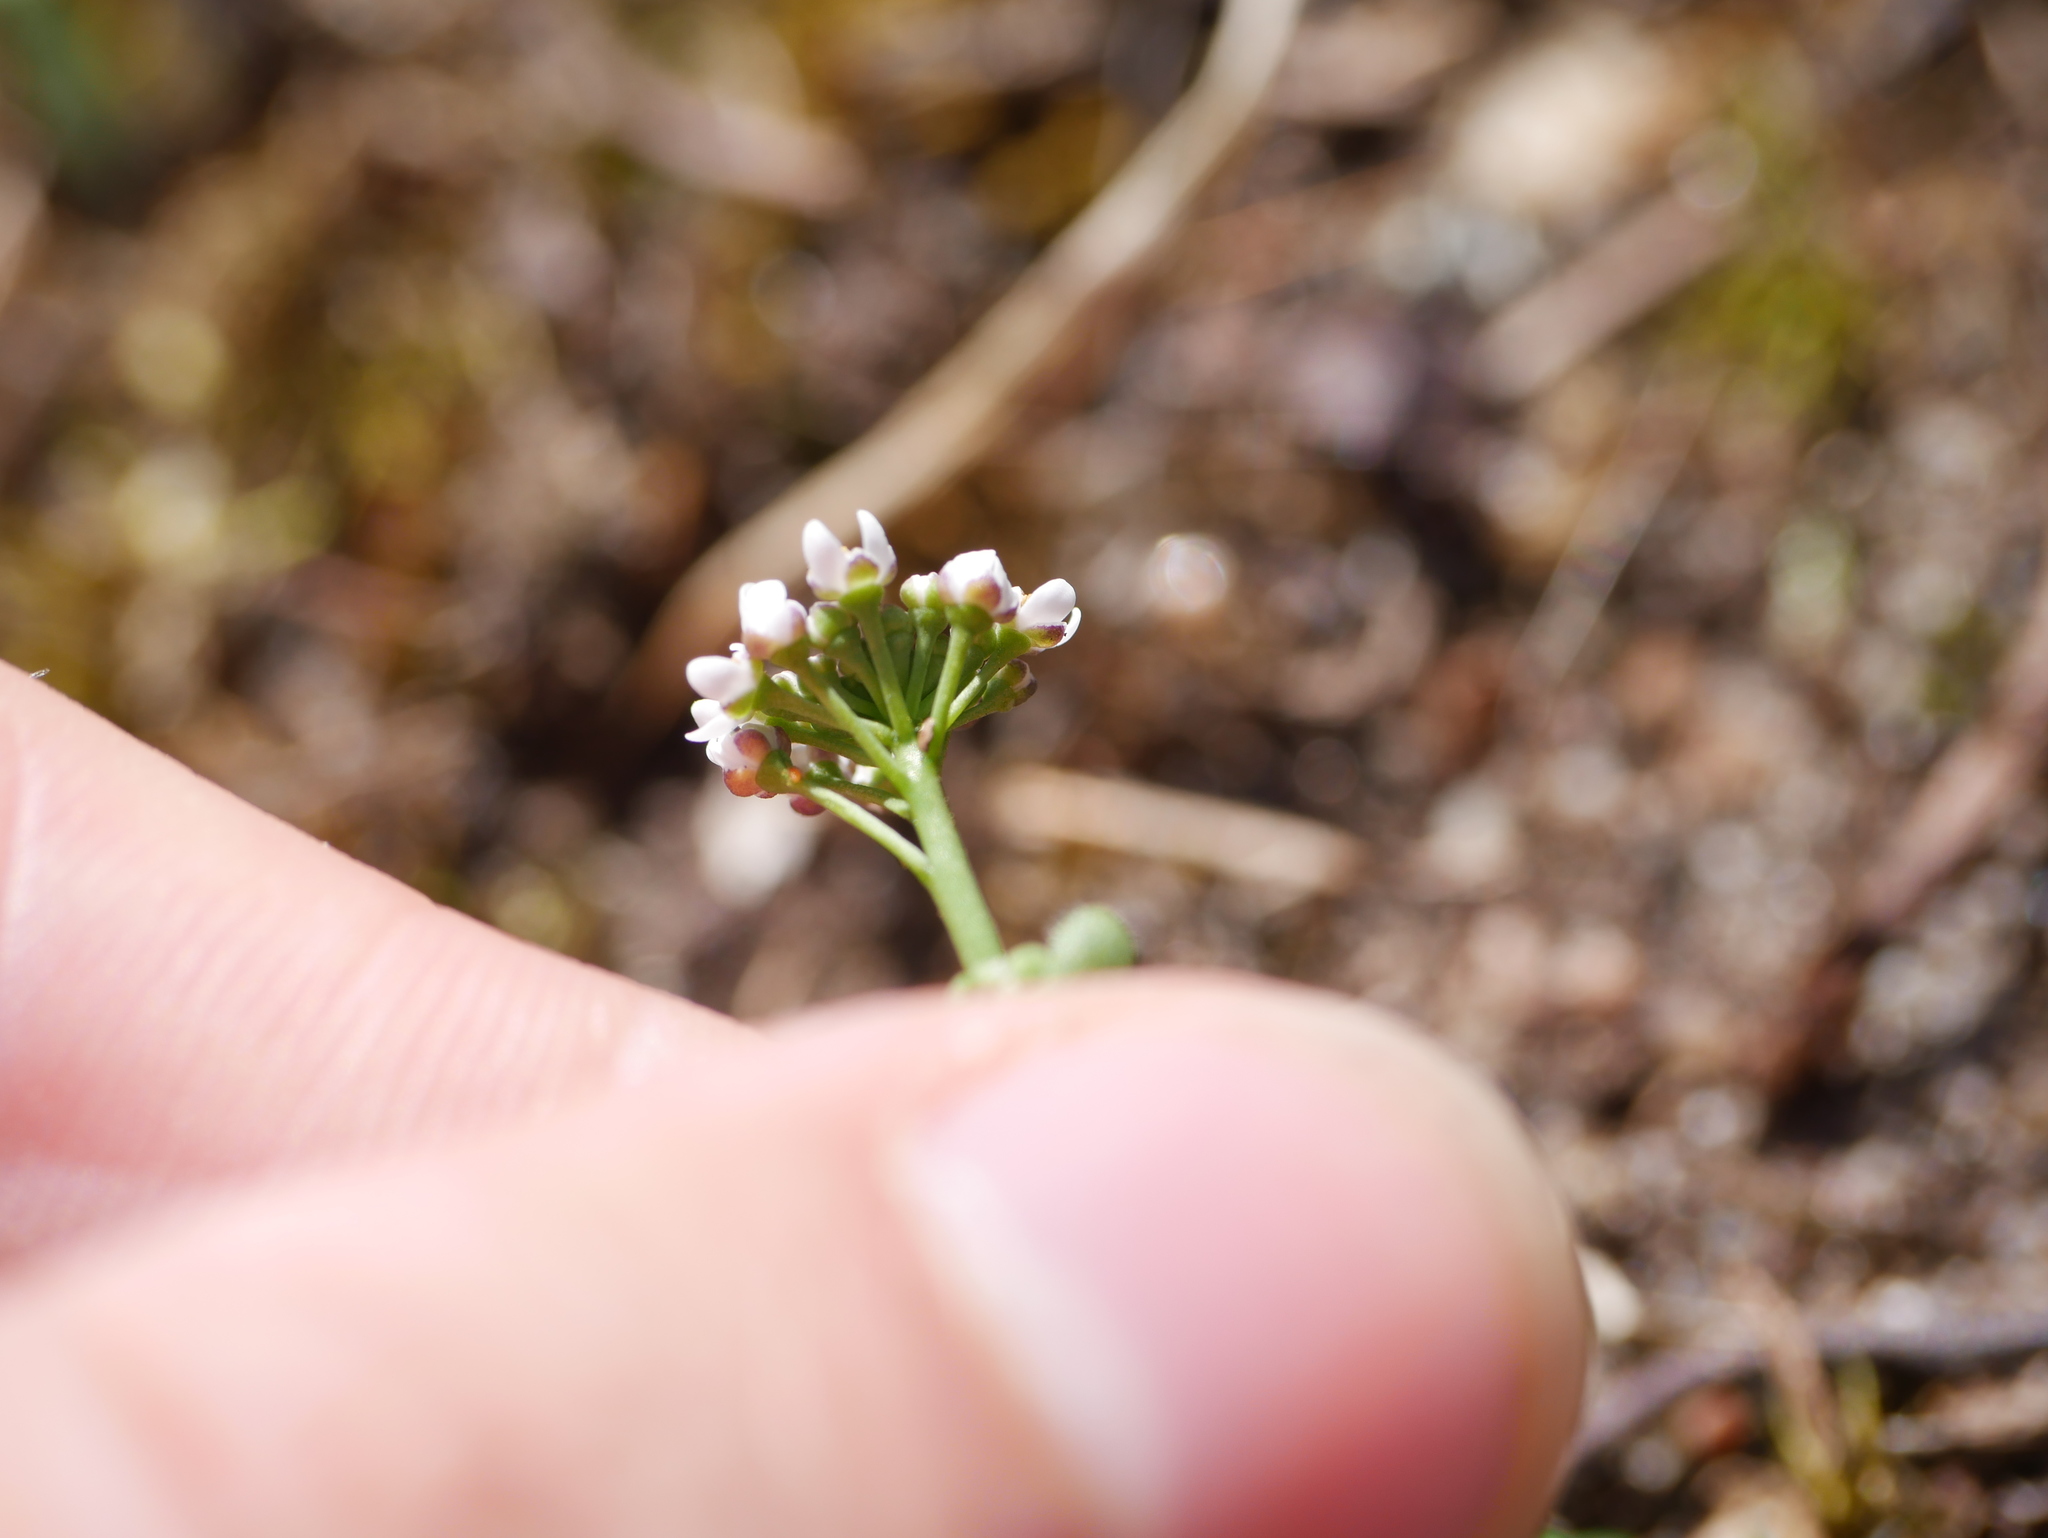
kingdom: Plantae
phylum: Tracheophyta
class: Magnoliopsida
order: Brassicales
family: Brassicaceae
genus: Teesdalia
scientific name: Teesdalia nudicaulis
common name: Shepherd's cress
